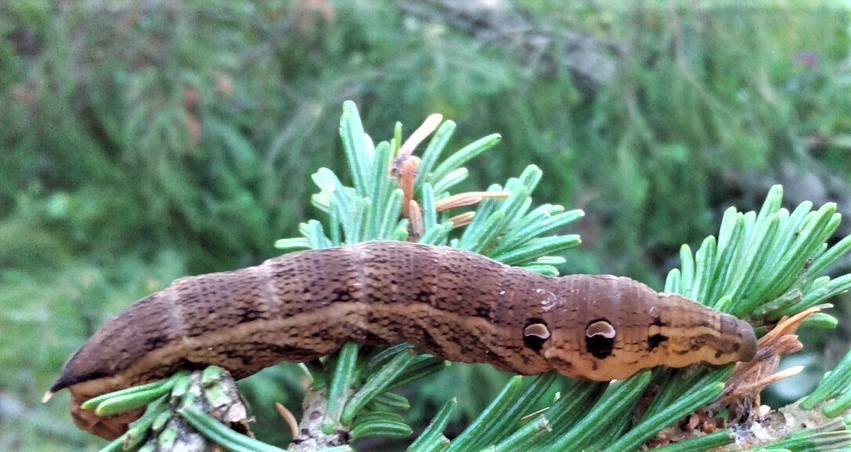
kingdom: Animalia
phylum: Arthropoda
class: Insecta
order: Lepidoptera
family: Sphingidae
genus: Deilephila
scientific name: Deilephila elpenor
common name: Elephant hawk-moth
